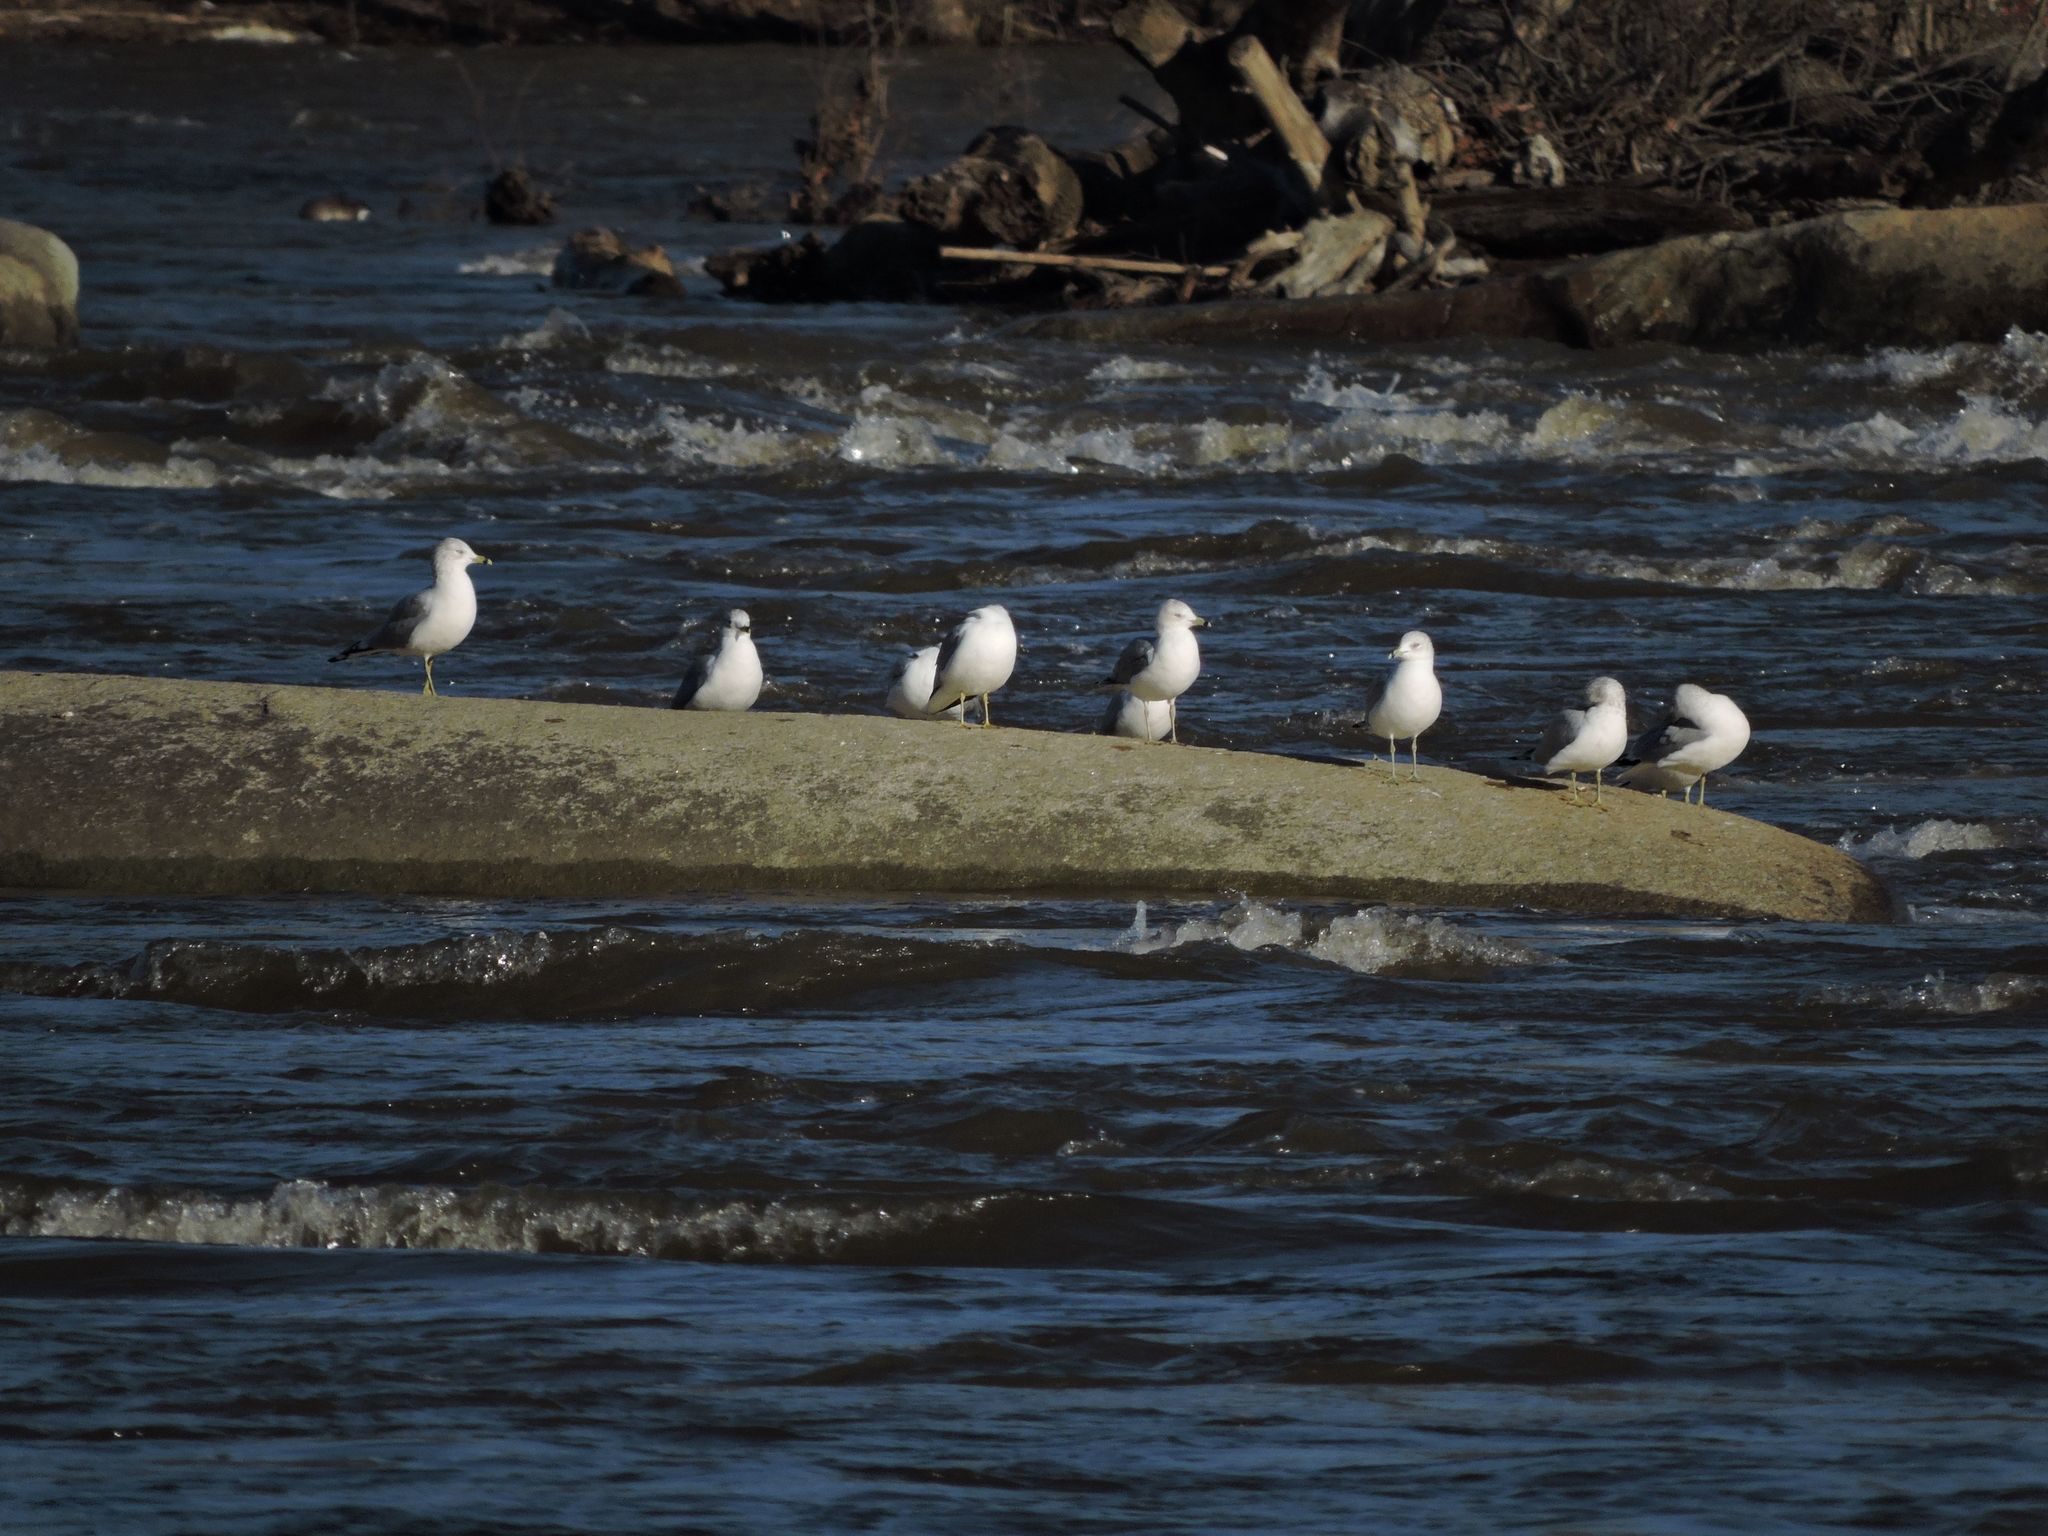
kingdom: Animalia
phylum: Chordata
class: Aves
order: Charadriiformes
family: Laridae
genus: Larus
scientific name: Larus delawarensis
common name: Ring-billed gull
